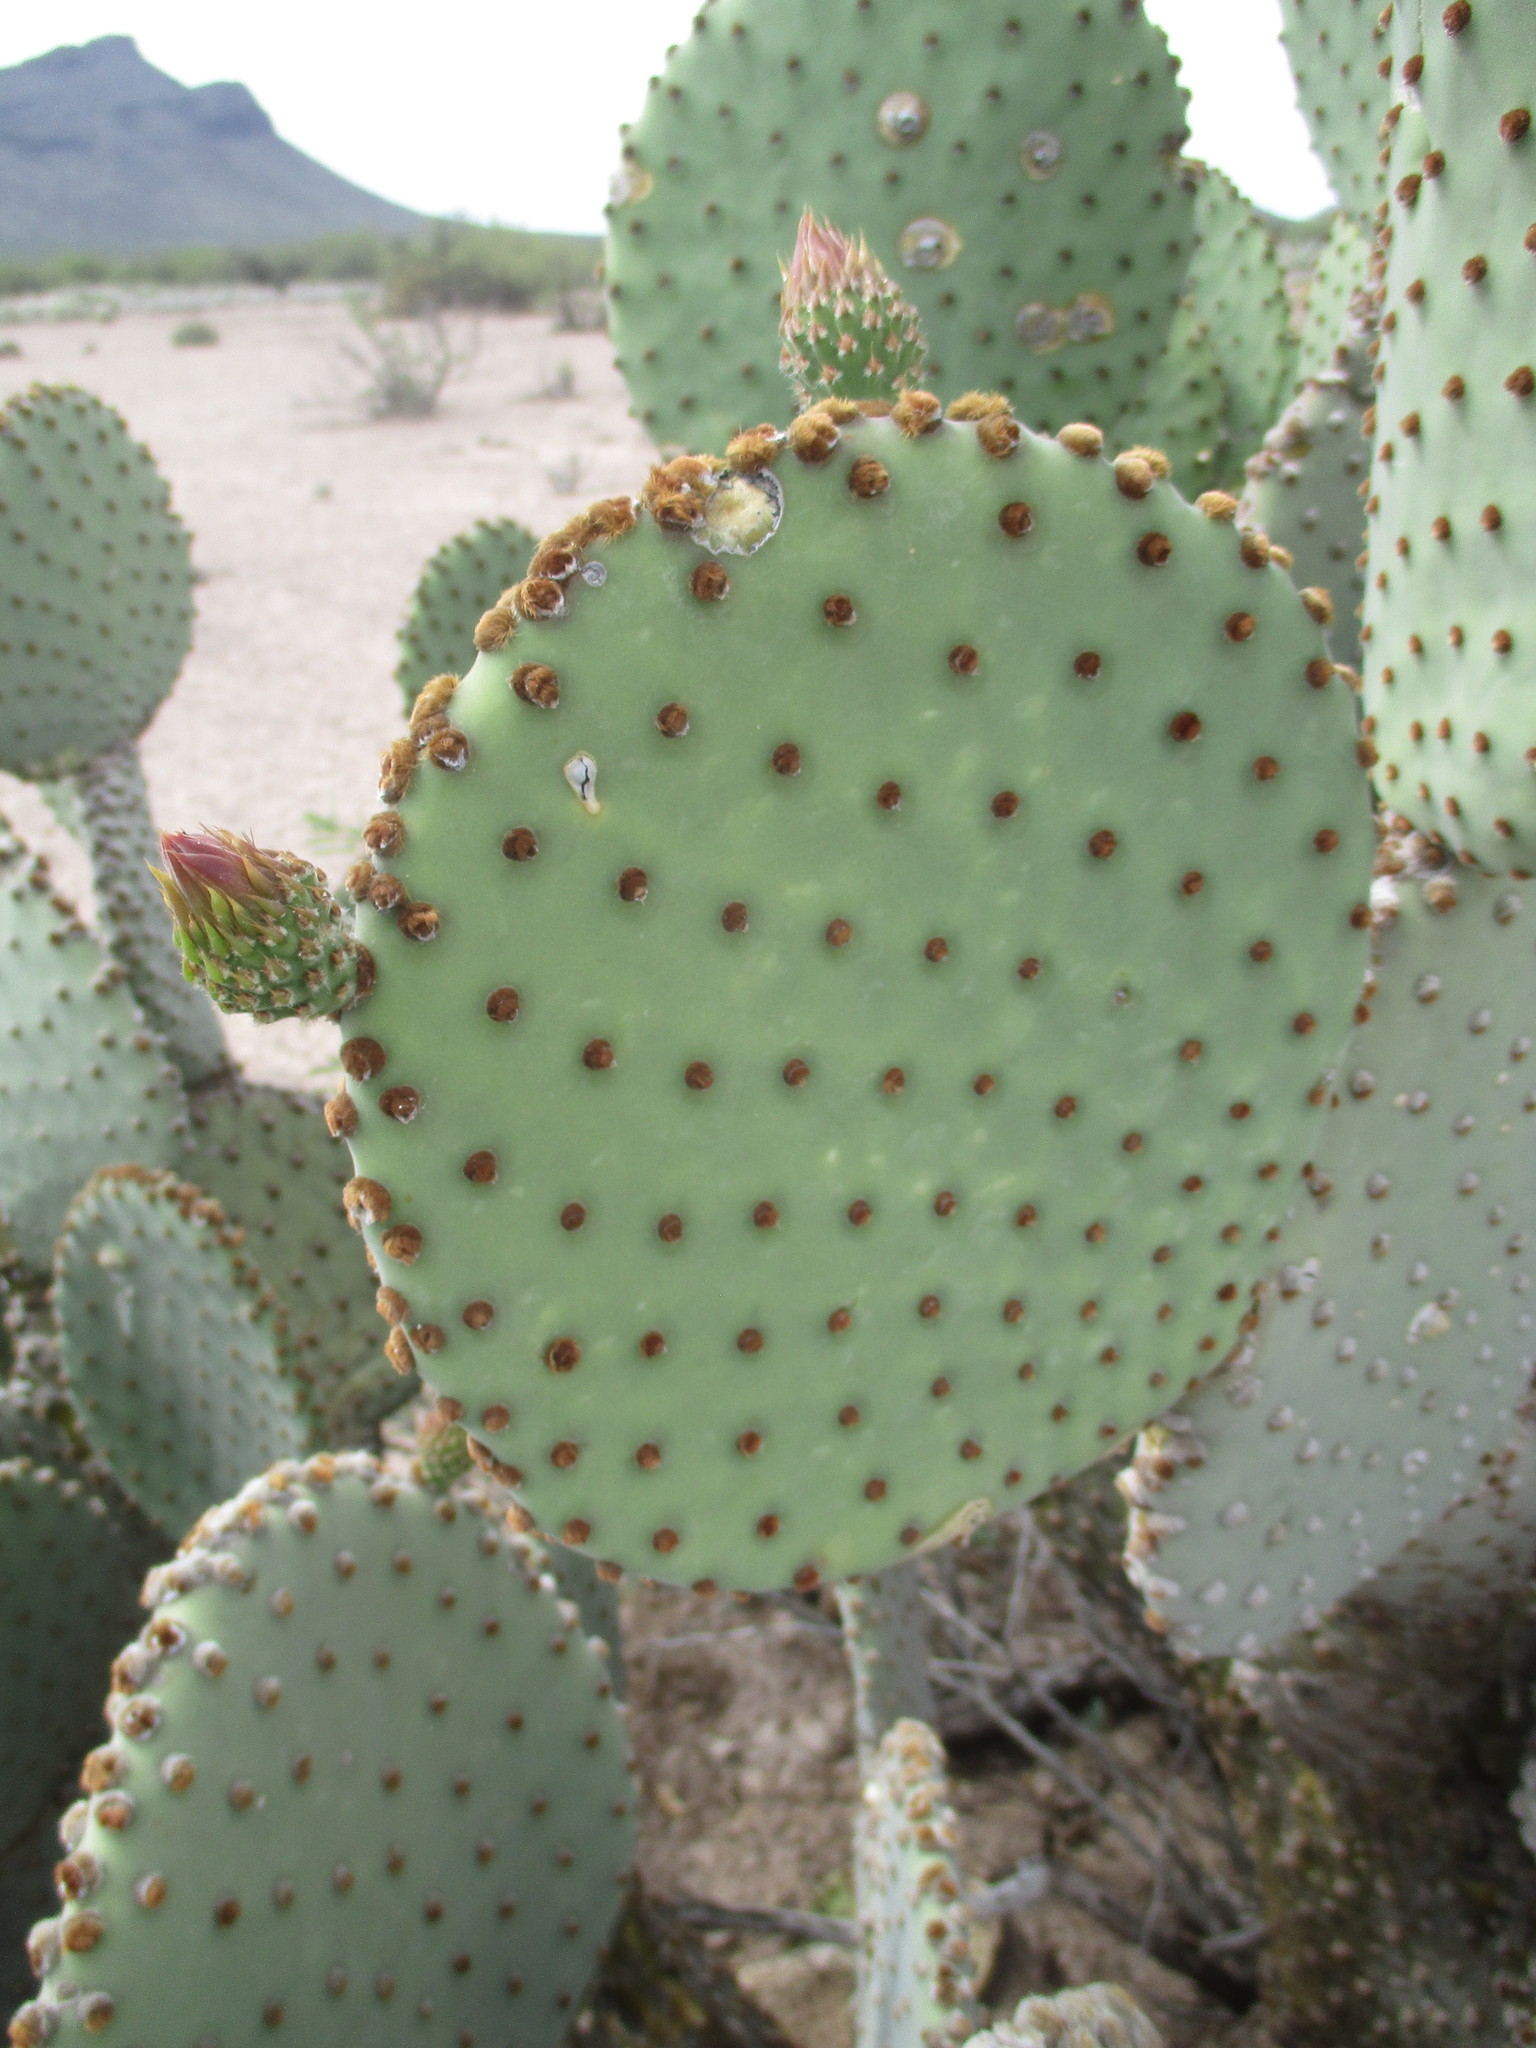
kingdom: Plantae
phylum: Tracheophyta
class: Magnoliopsida
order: Caryophyllales
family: Cactaceae
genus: Opuntia
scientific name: Opuntia rufida
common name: Blind pricklypear
